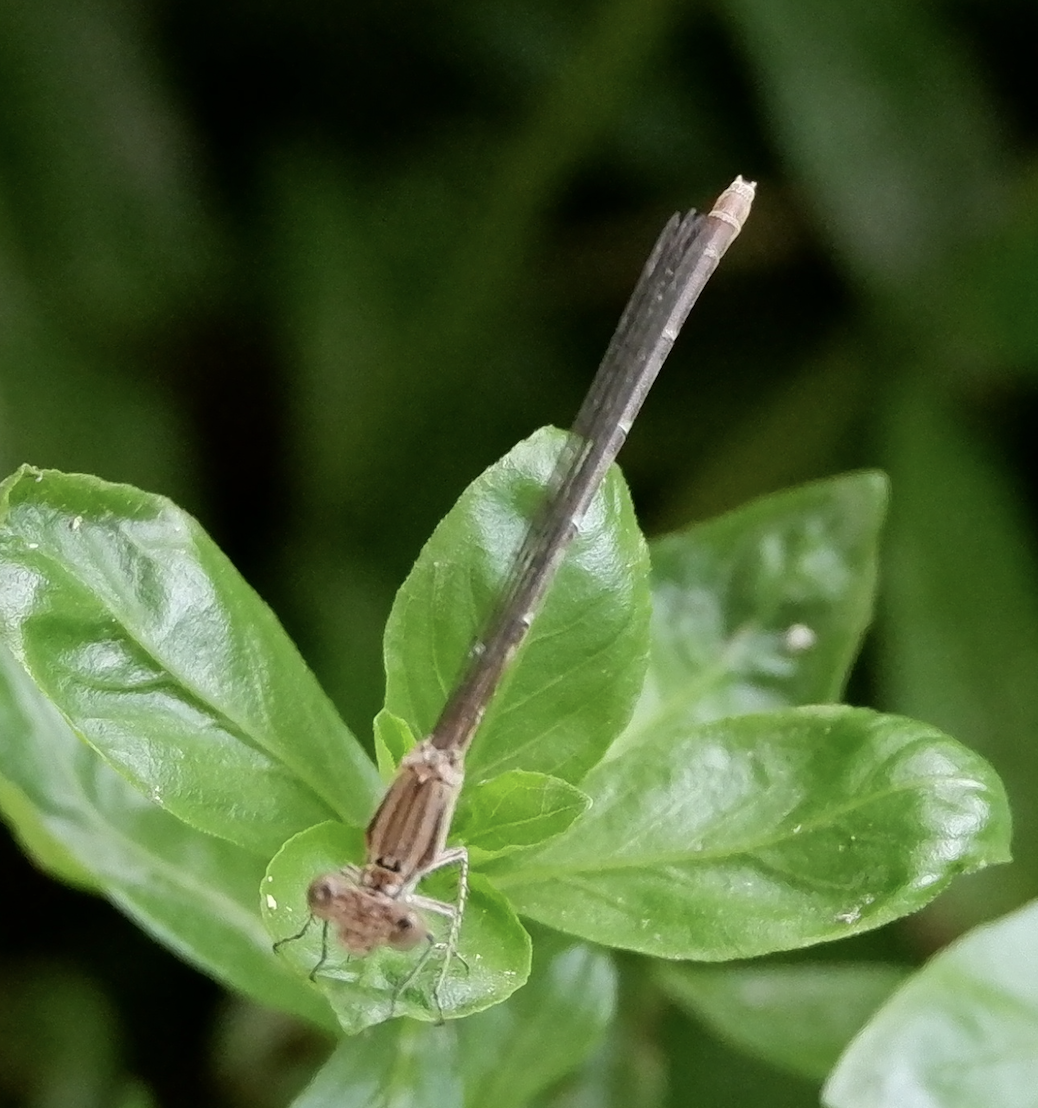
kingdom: Animalia
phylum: Arthropoda
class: Insecta
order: Odonata
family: Coenagrionidae
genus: Argia
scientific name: Argia sedula
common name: Blue-ringed dancer
